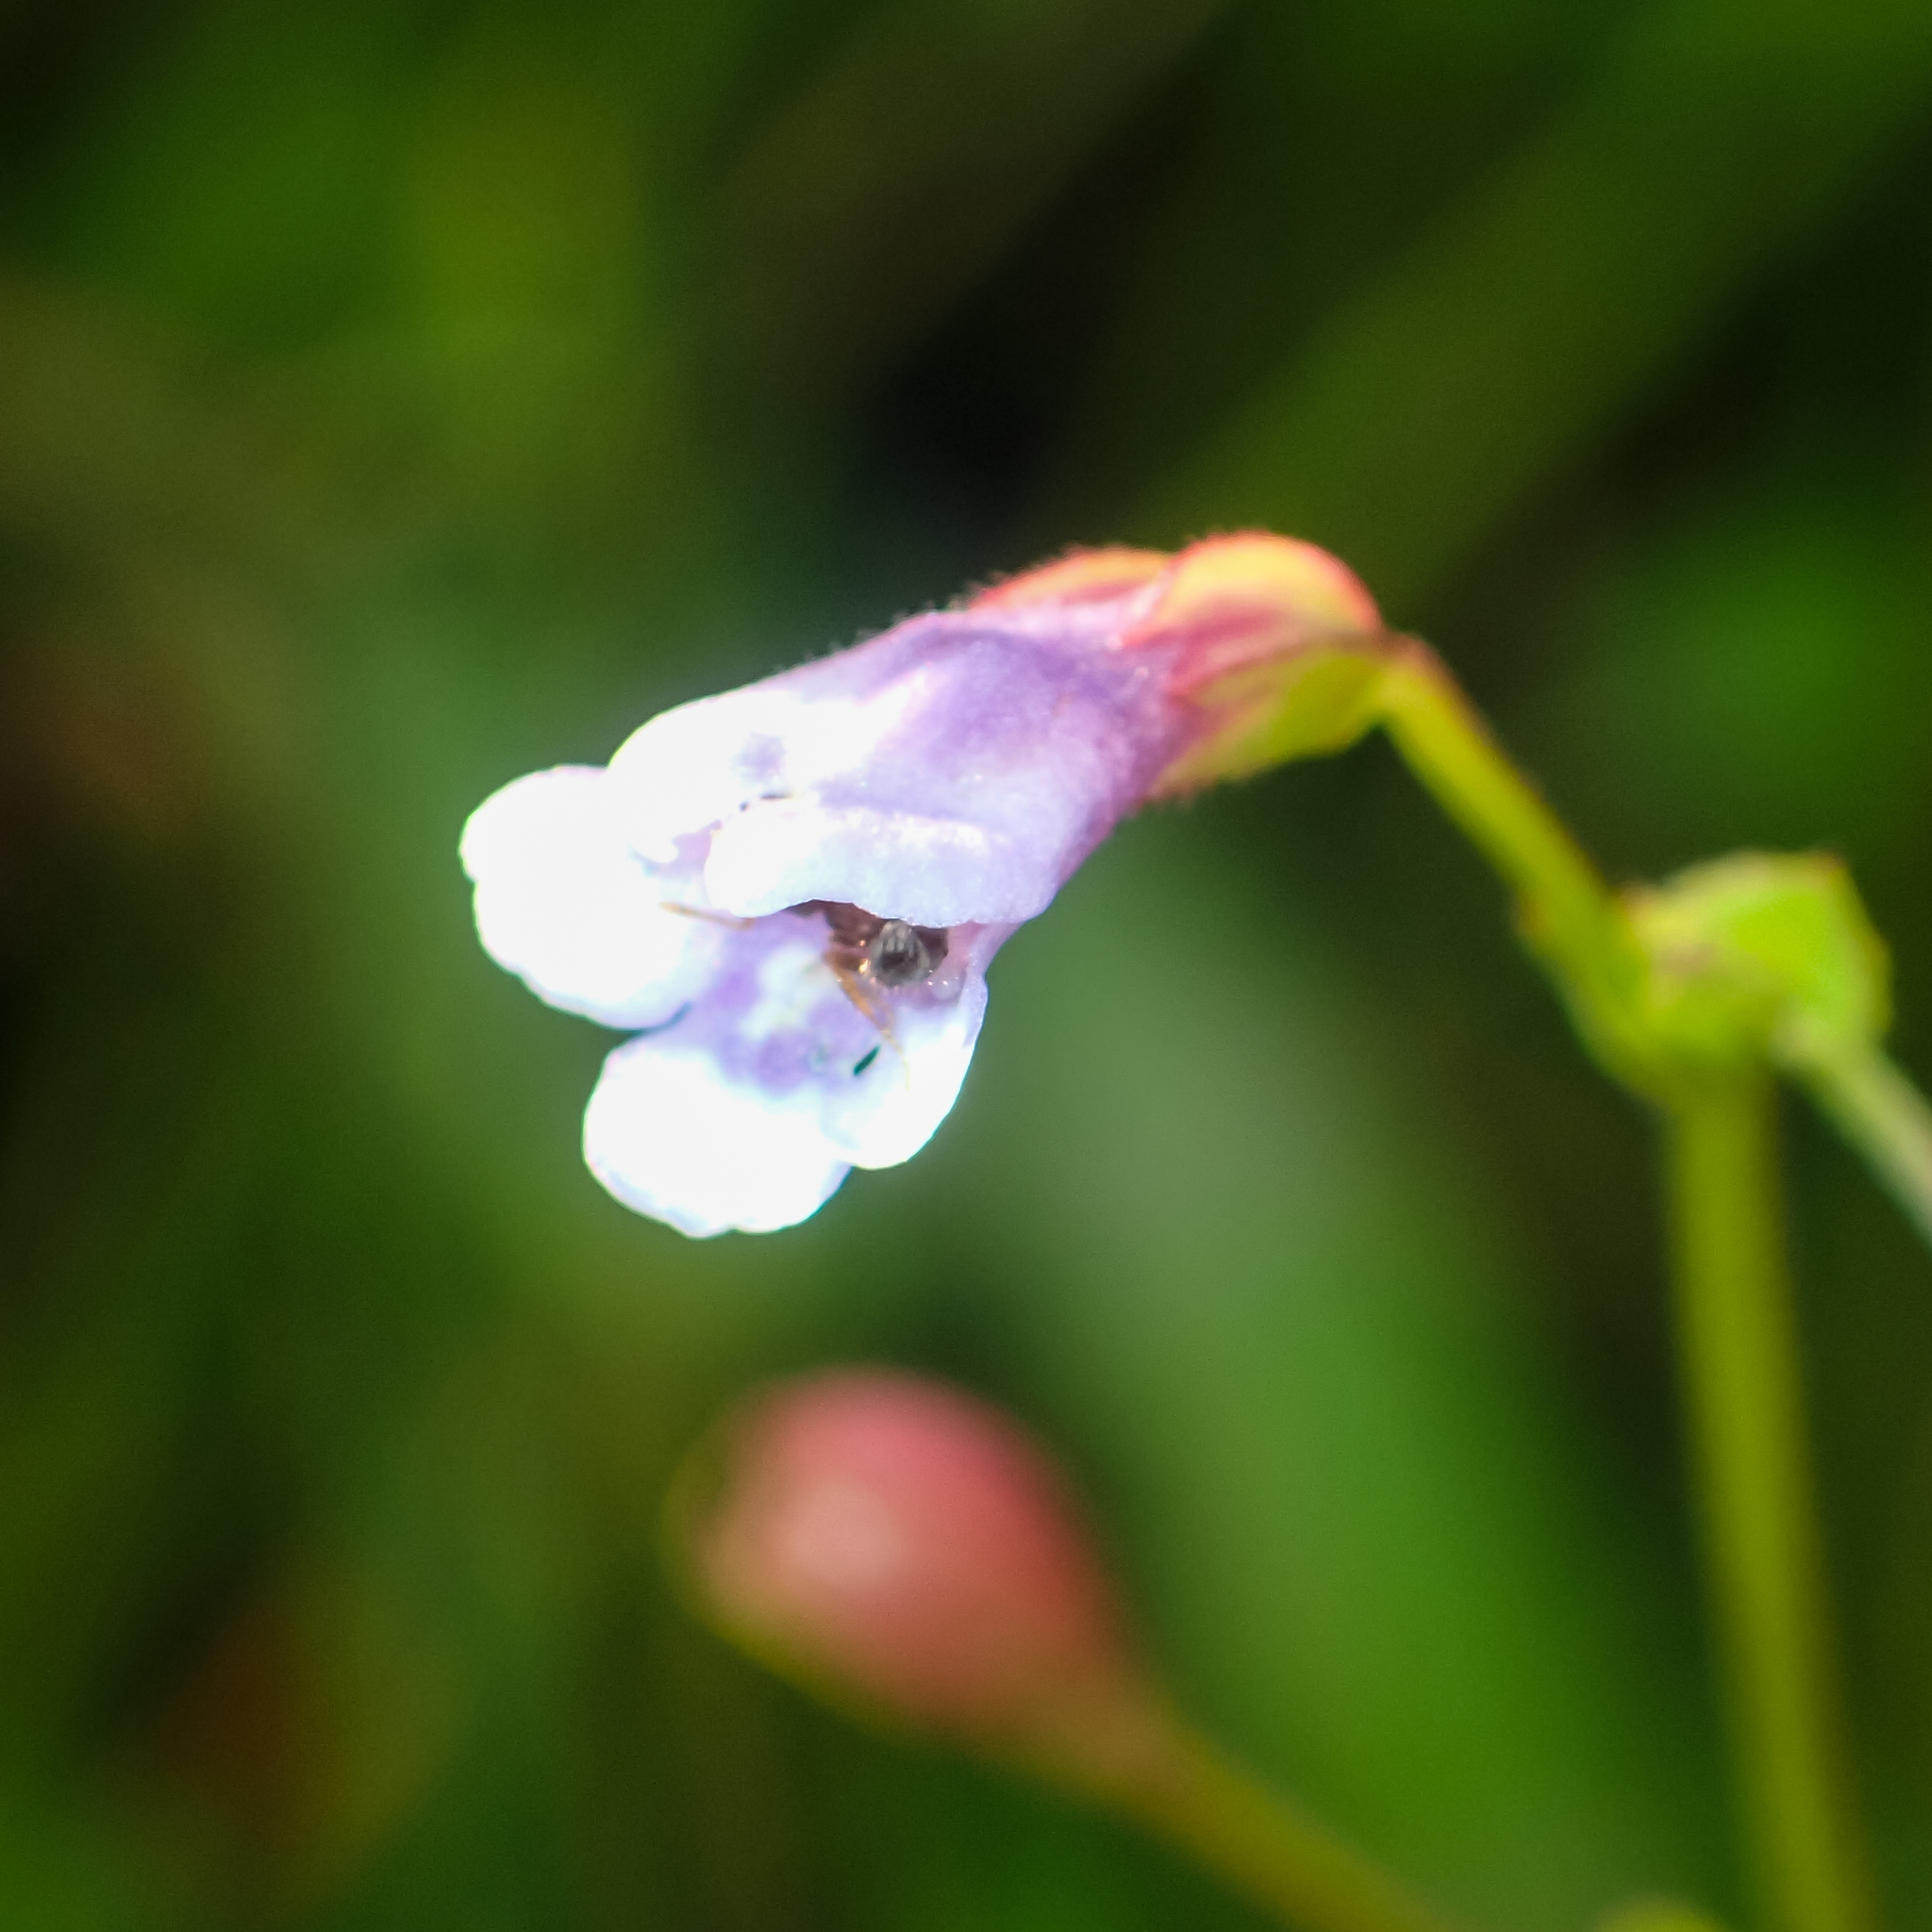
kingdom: Plantae
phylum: Tracheophyta
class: Magnoliopsida
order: Lamiales
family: Linderniaceae
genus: Torenia
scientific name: Torenia crustacea
